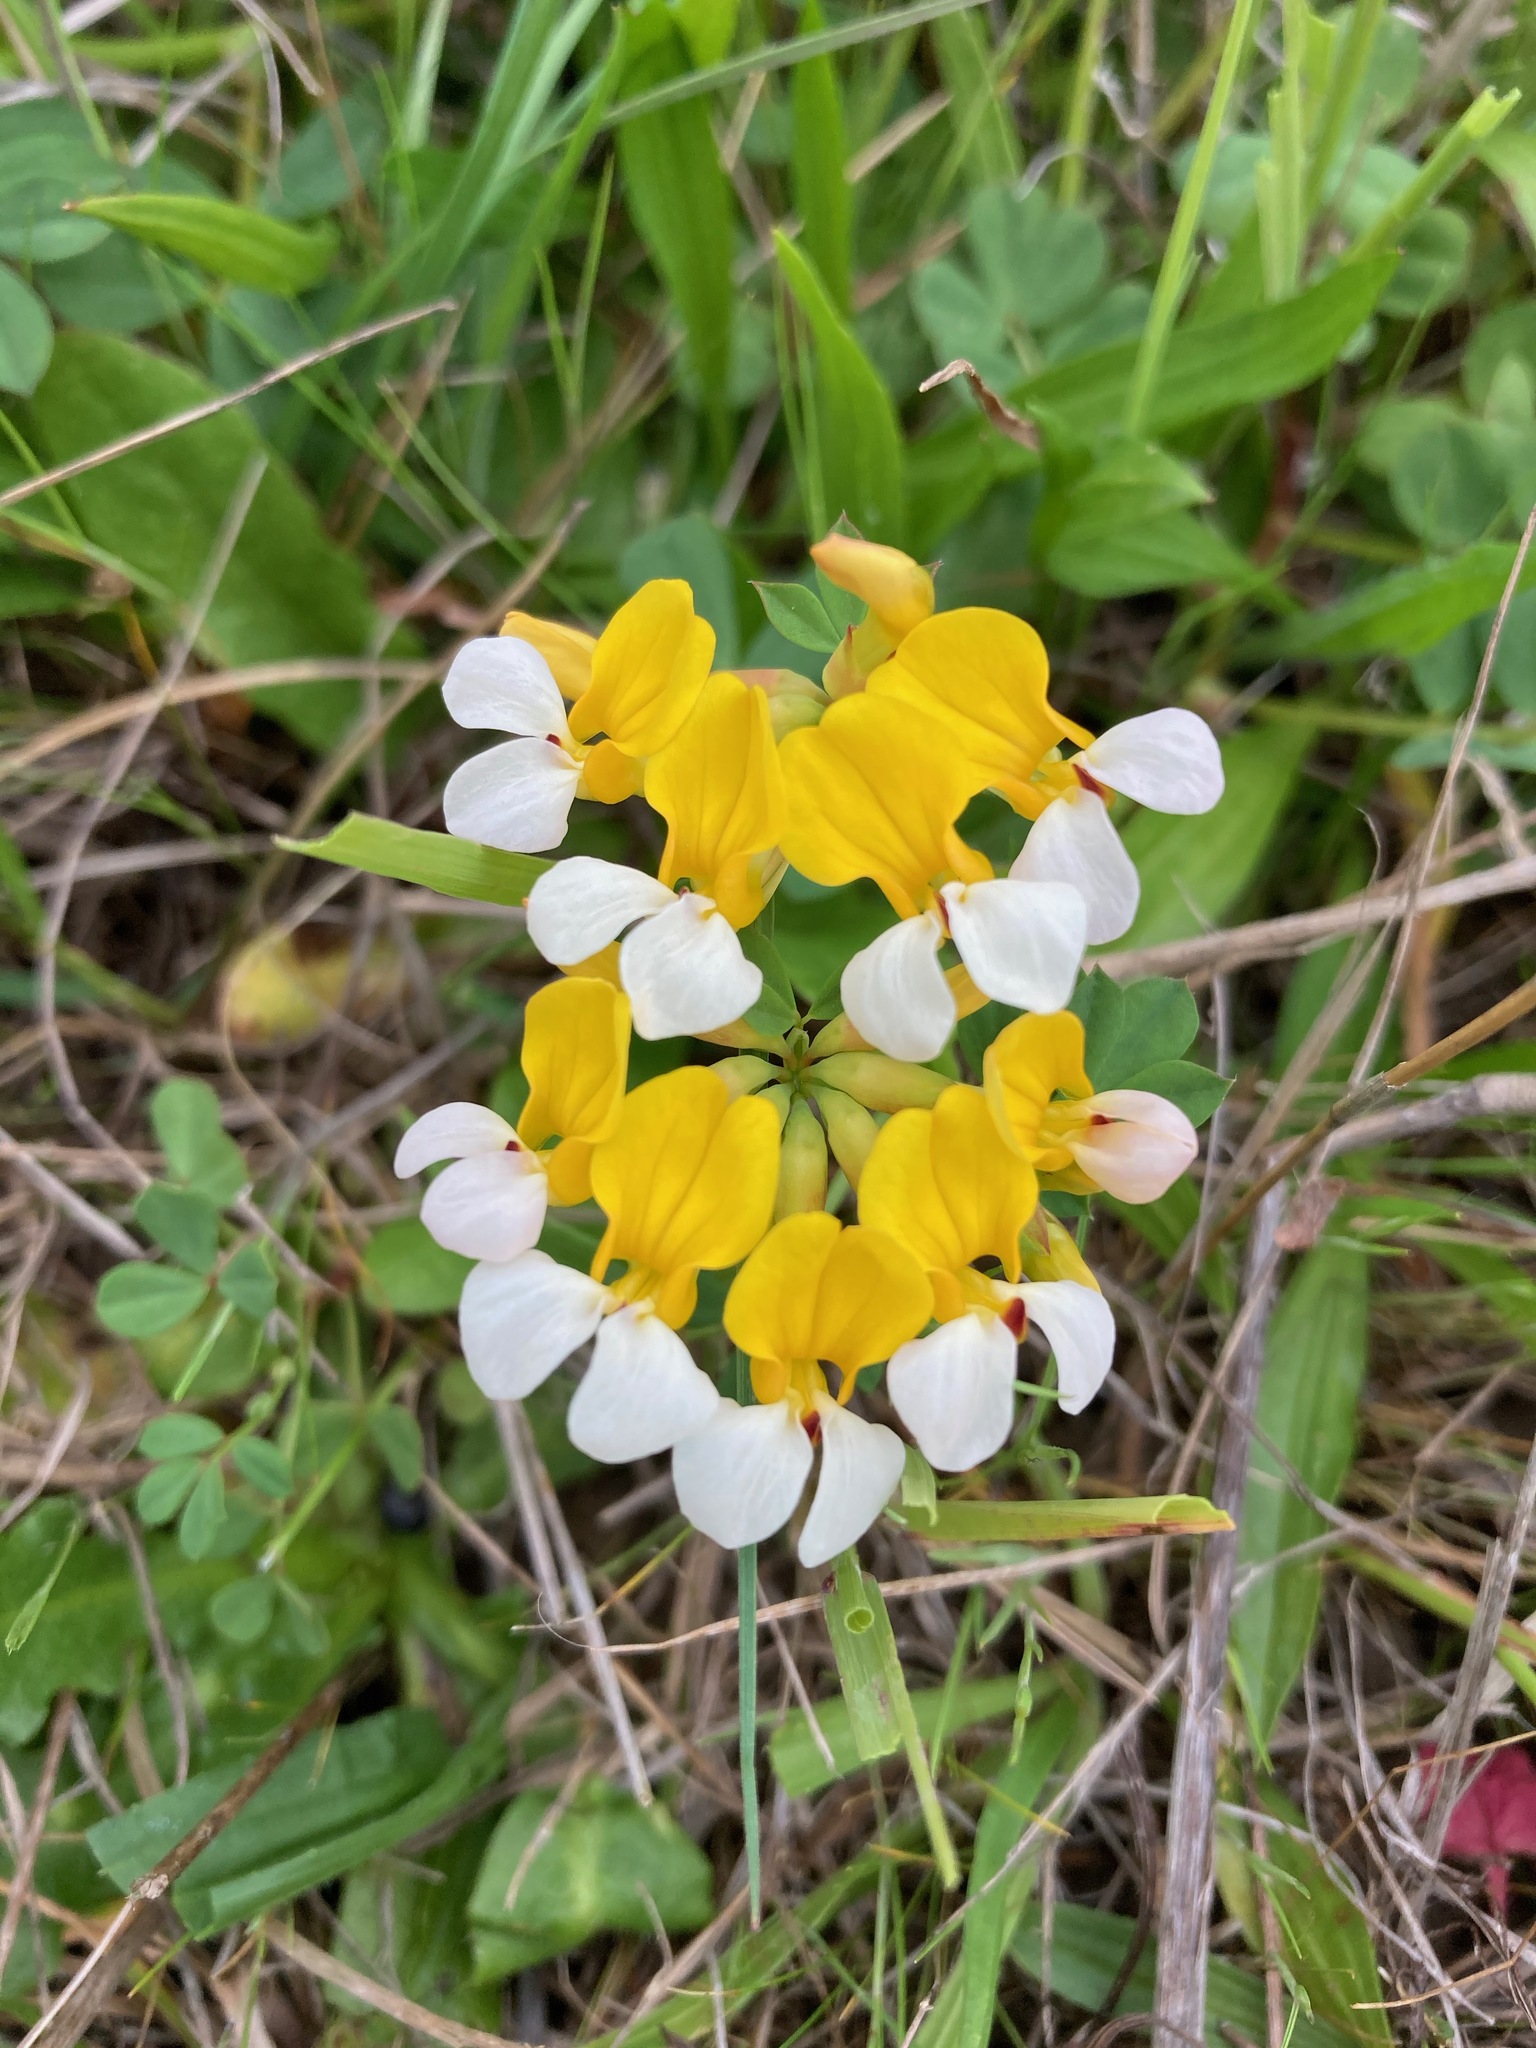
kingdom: Plantae
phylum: Tracheophyta
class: Magnoliopsida
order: Fabales
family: Fabaceae
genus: Hosackia
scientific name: Hosackia gracilis
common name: Seaside bird's-foot lotus
